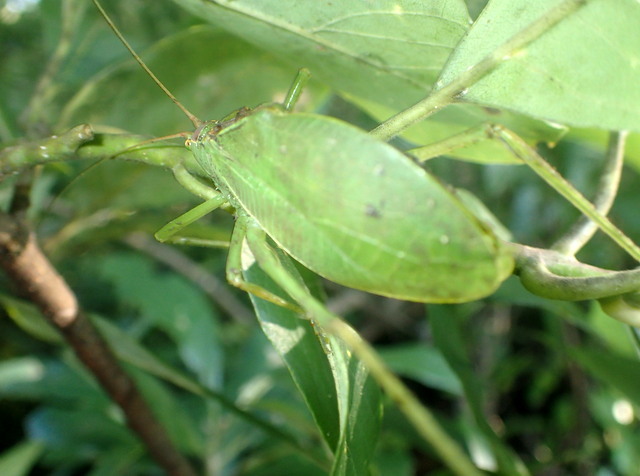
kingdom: Animalia
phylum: Arthropoda
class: Insecta
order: Orthoptera
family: Tettigoniidae
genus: Pterophylla
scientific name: Pterophylla camellifolia
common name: Common true katydid
